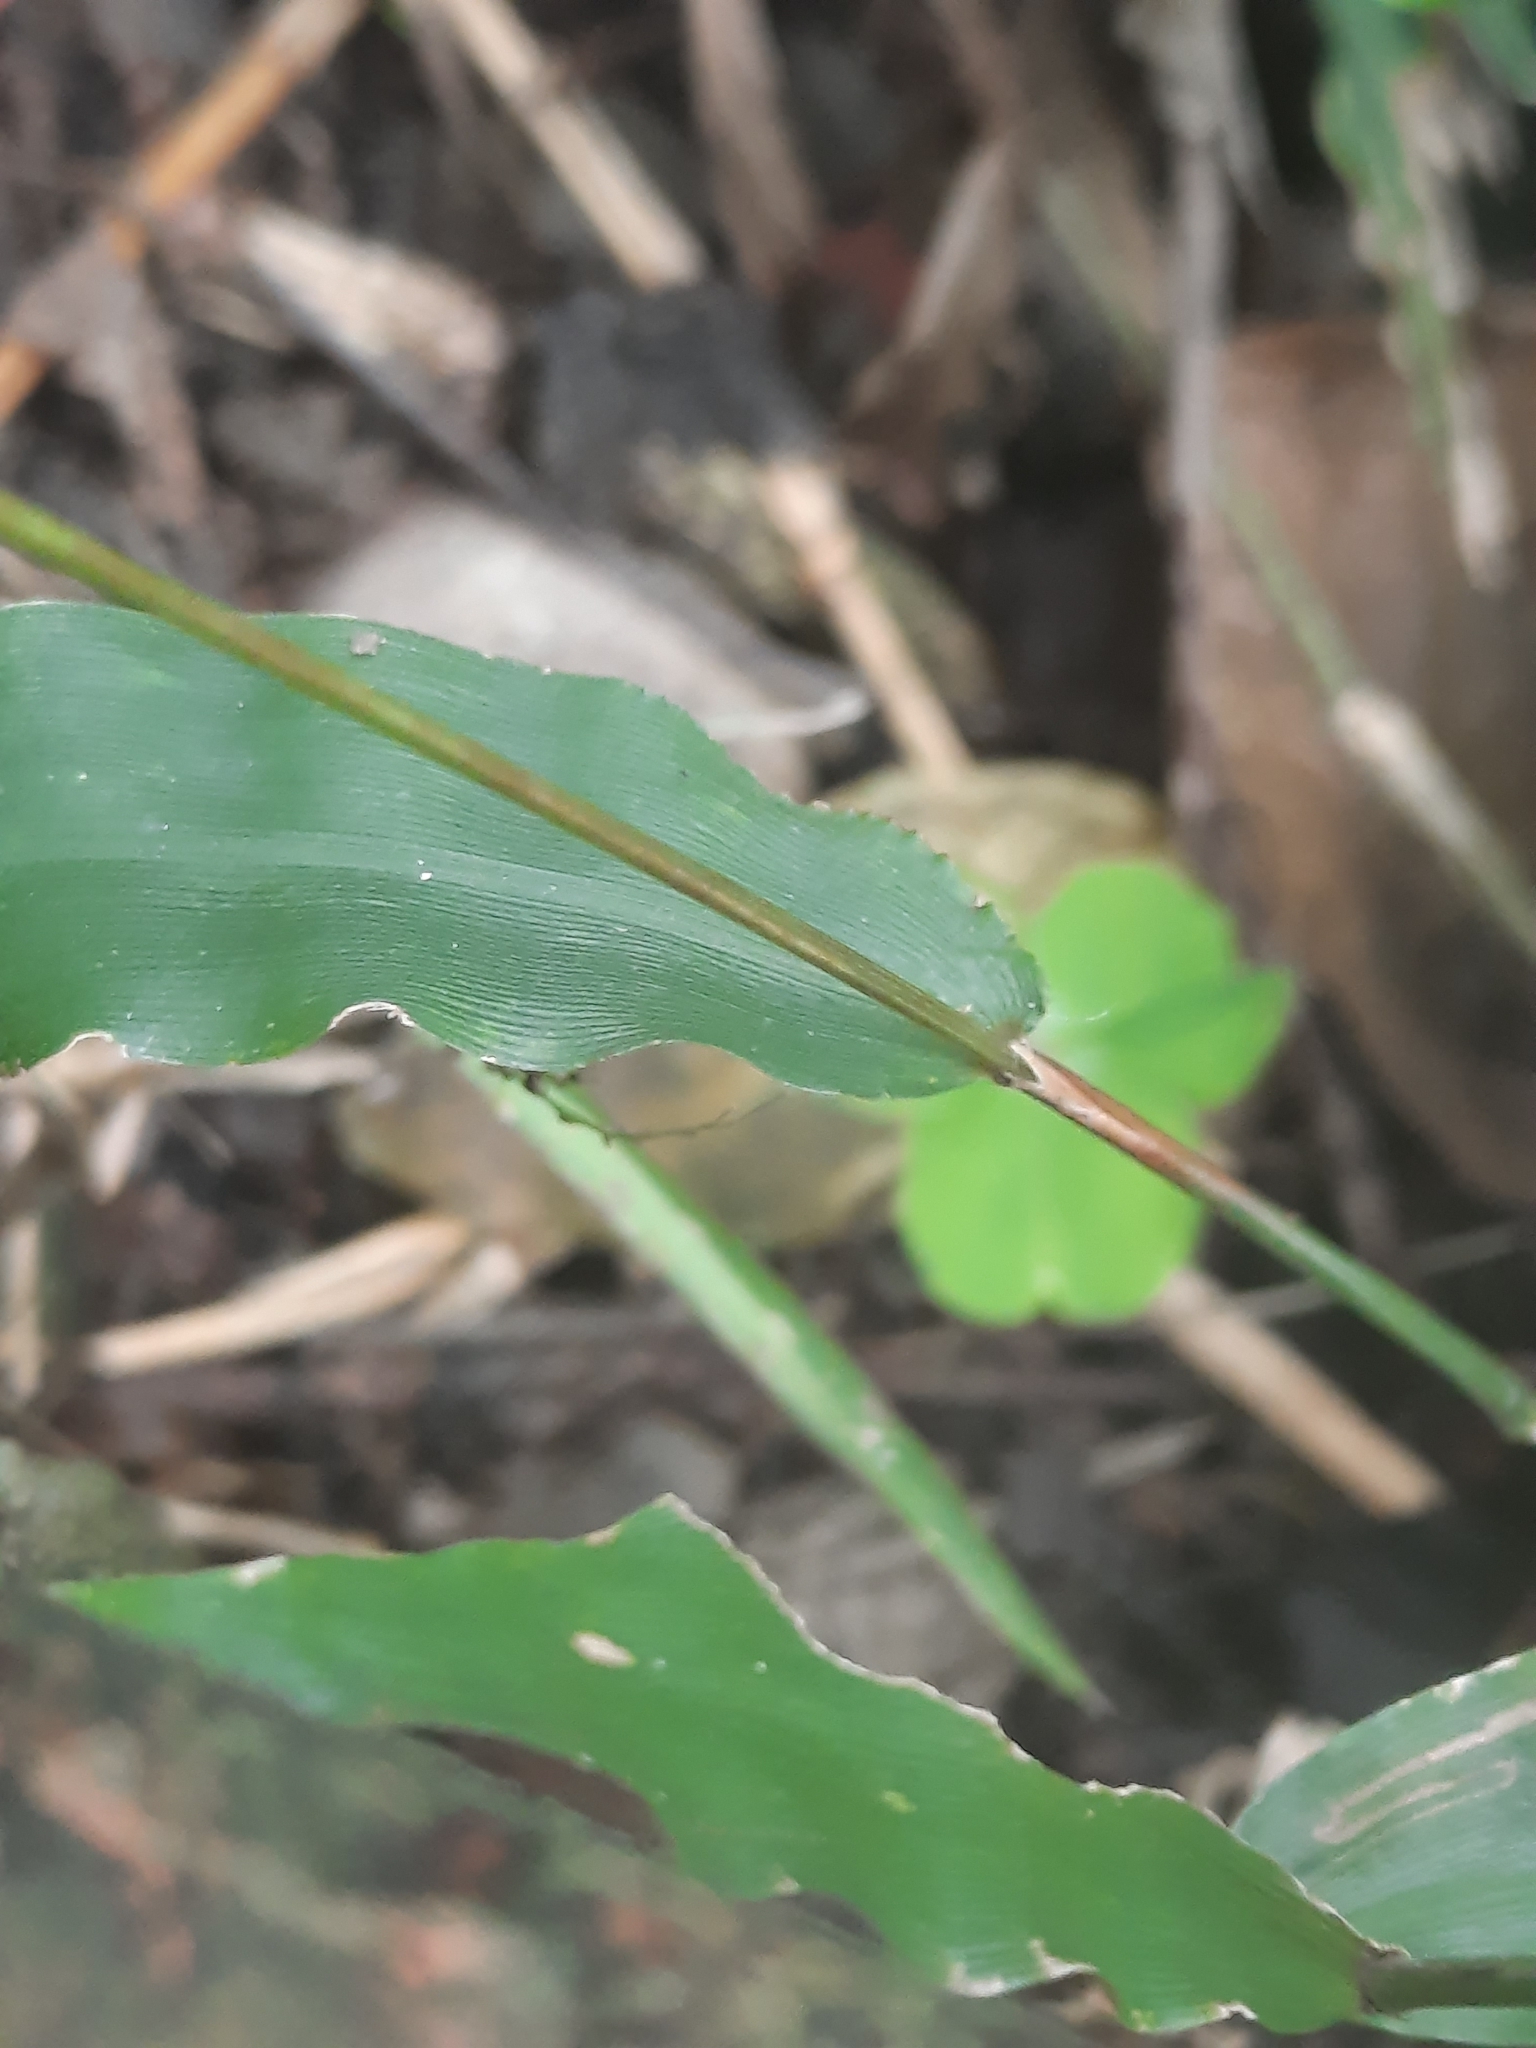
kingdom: Plantae
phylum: Tracheophyta
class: Liliopsida
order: Poales
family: Poaceae
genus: Oplismenus
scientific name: Oplismenus compositus
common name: Running mountain grass
